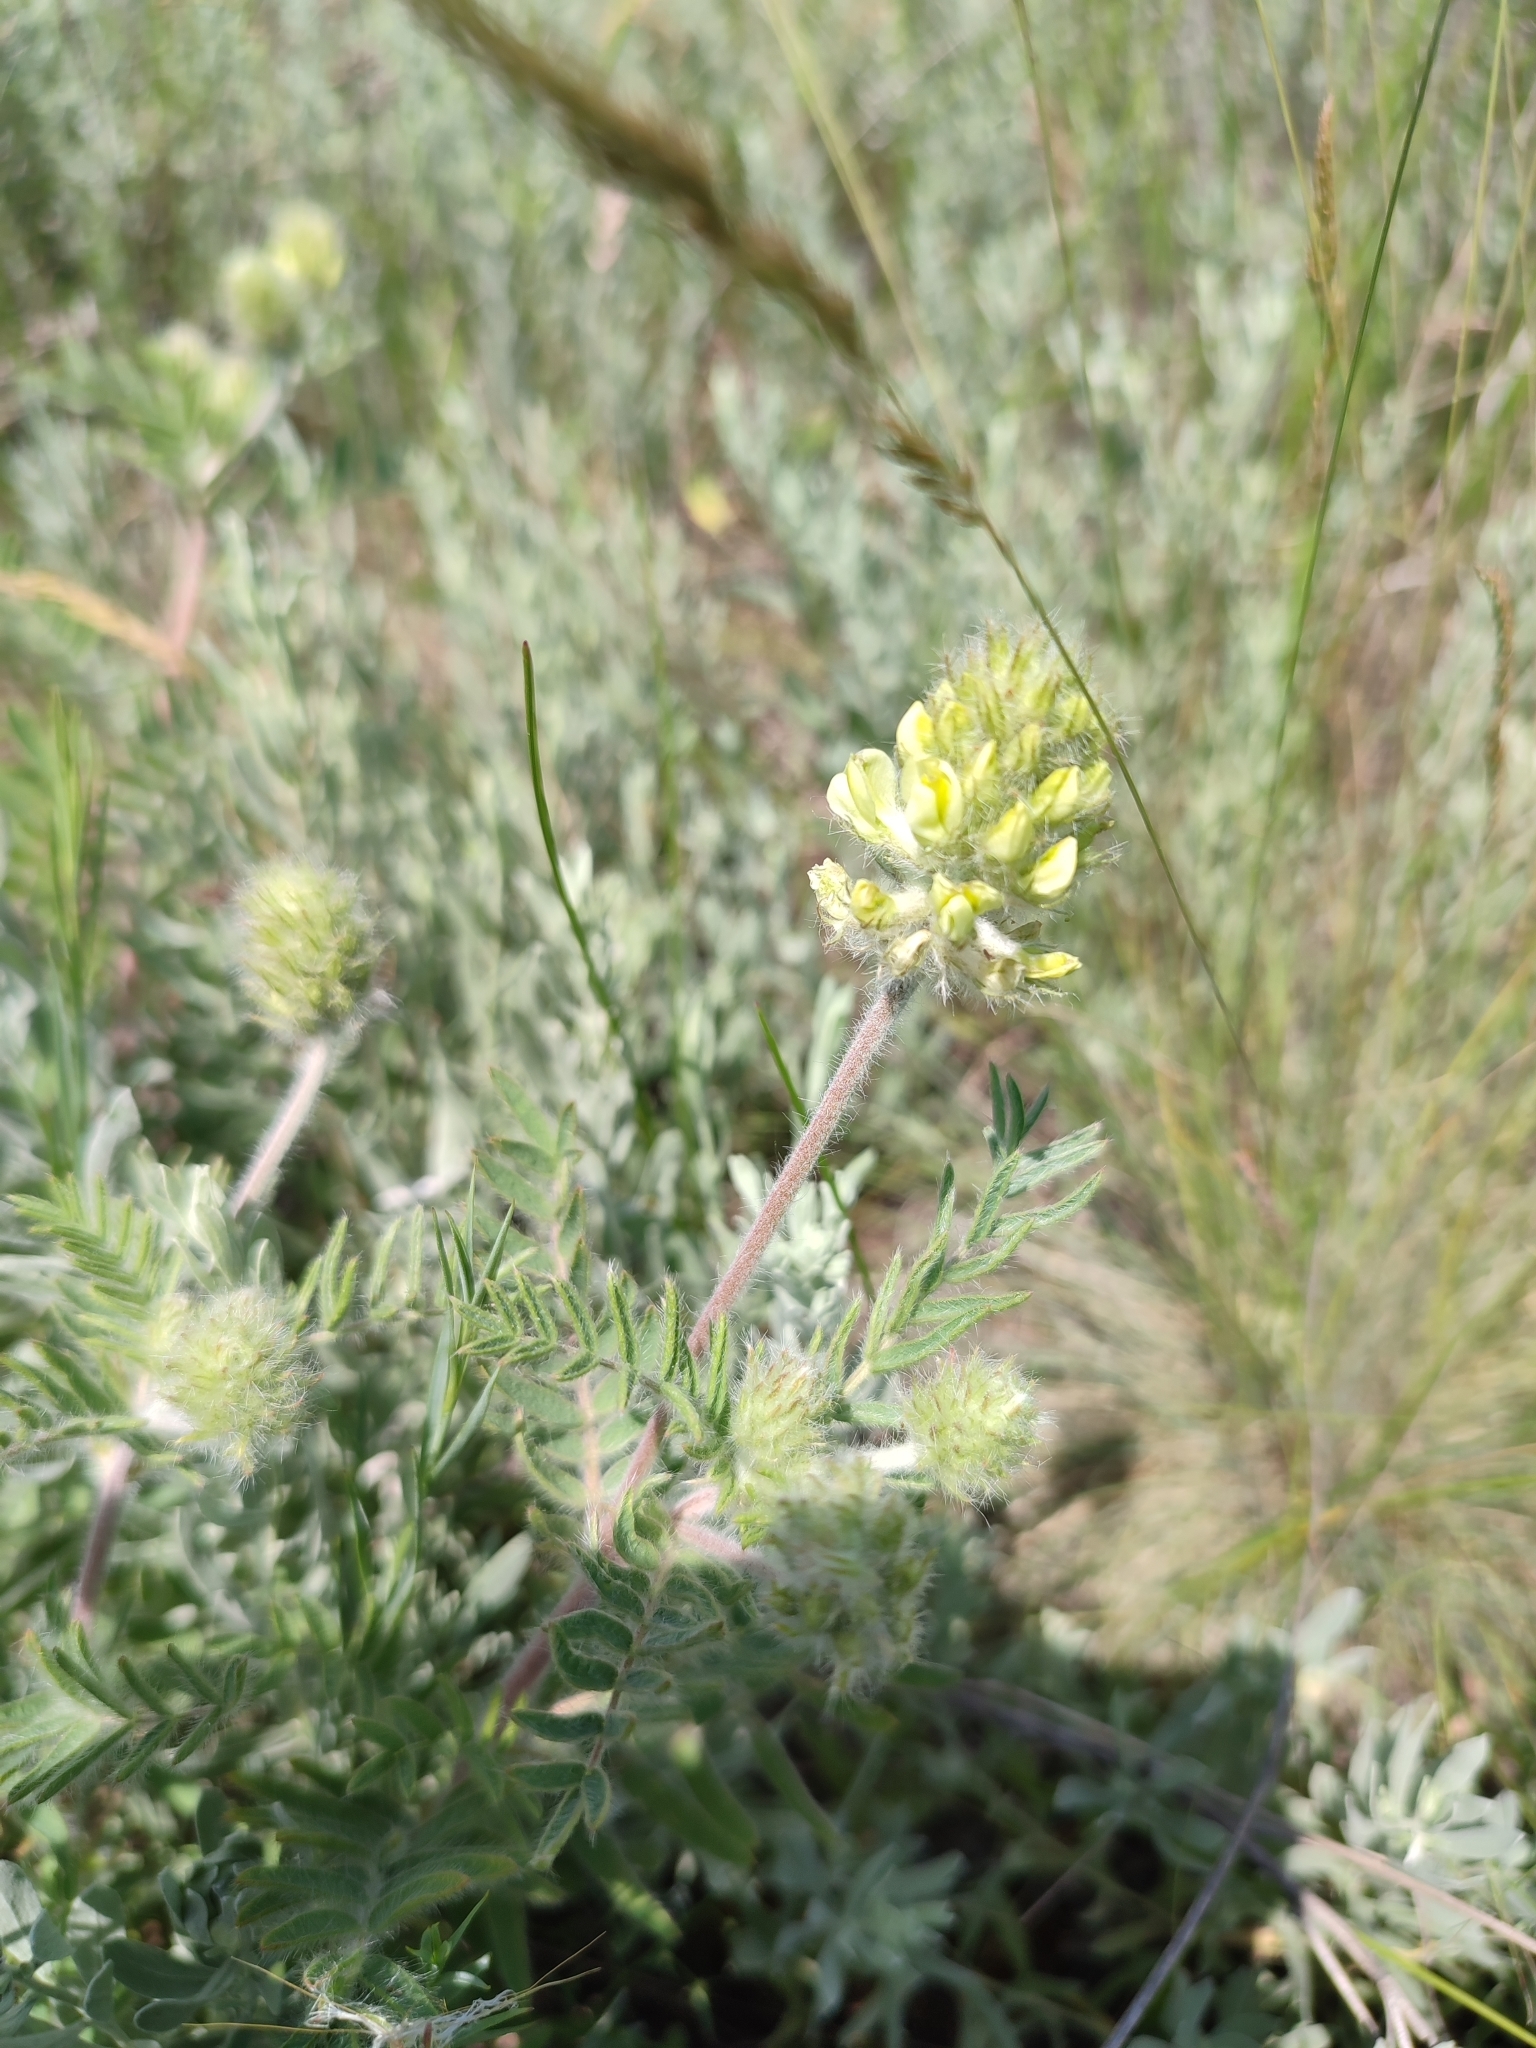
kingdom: Plantae
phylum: Tracheophyta
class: Magnoliopsida
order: Fabales
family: Fabaceae
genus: Oxytropis
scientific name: Oxytropis pilosa
